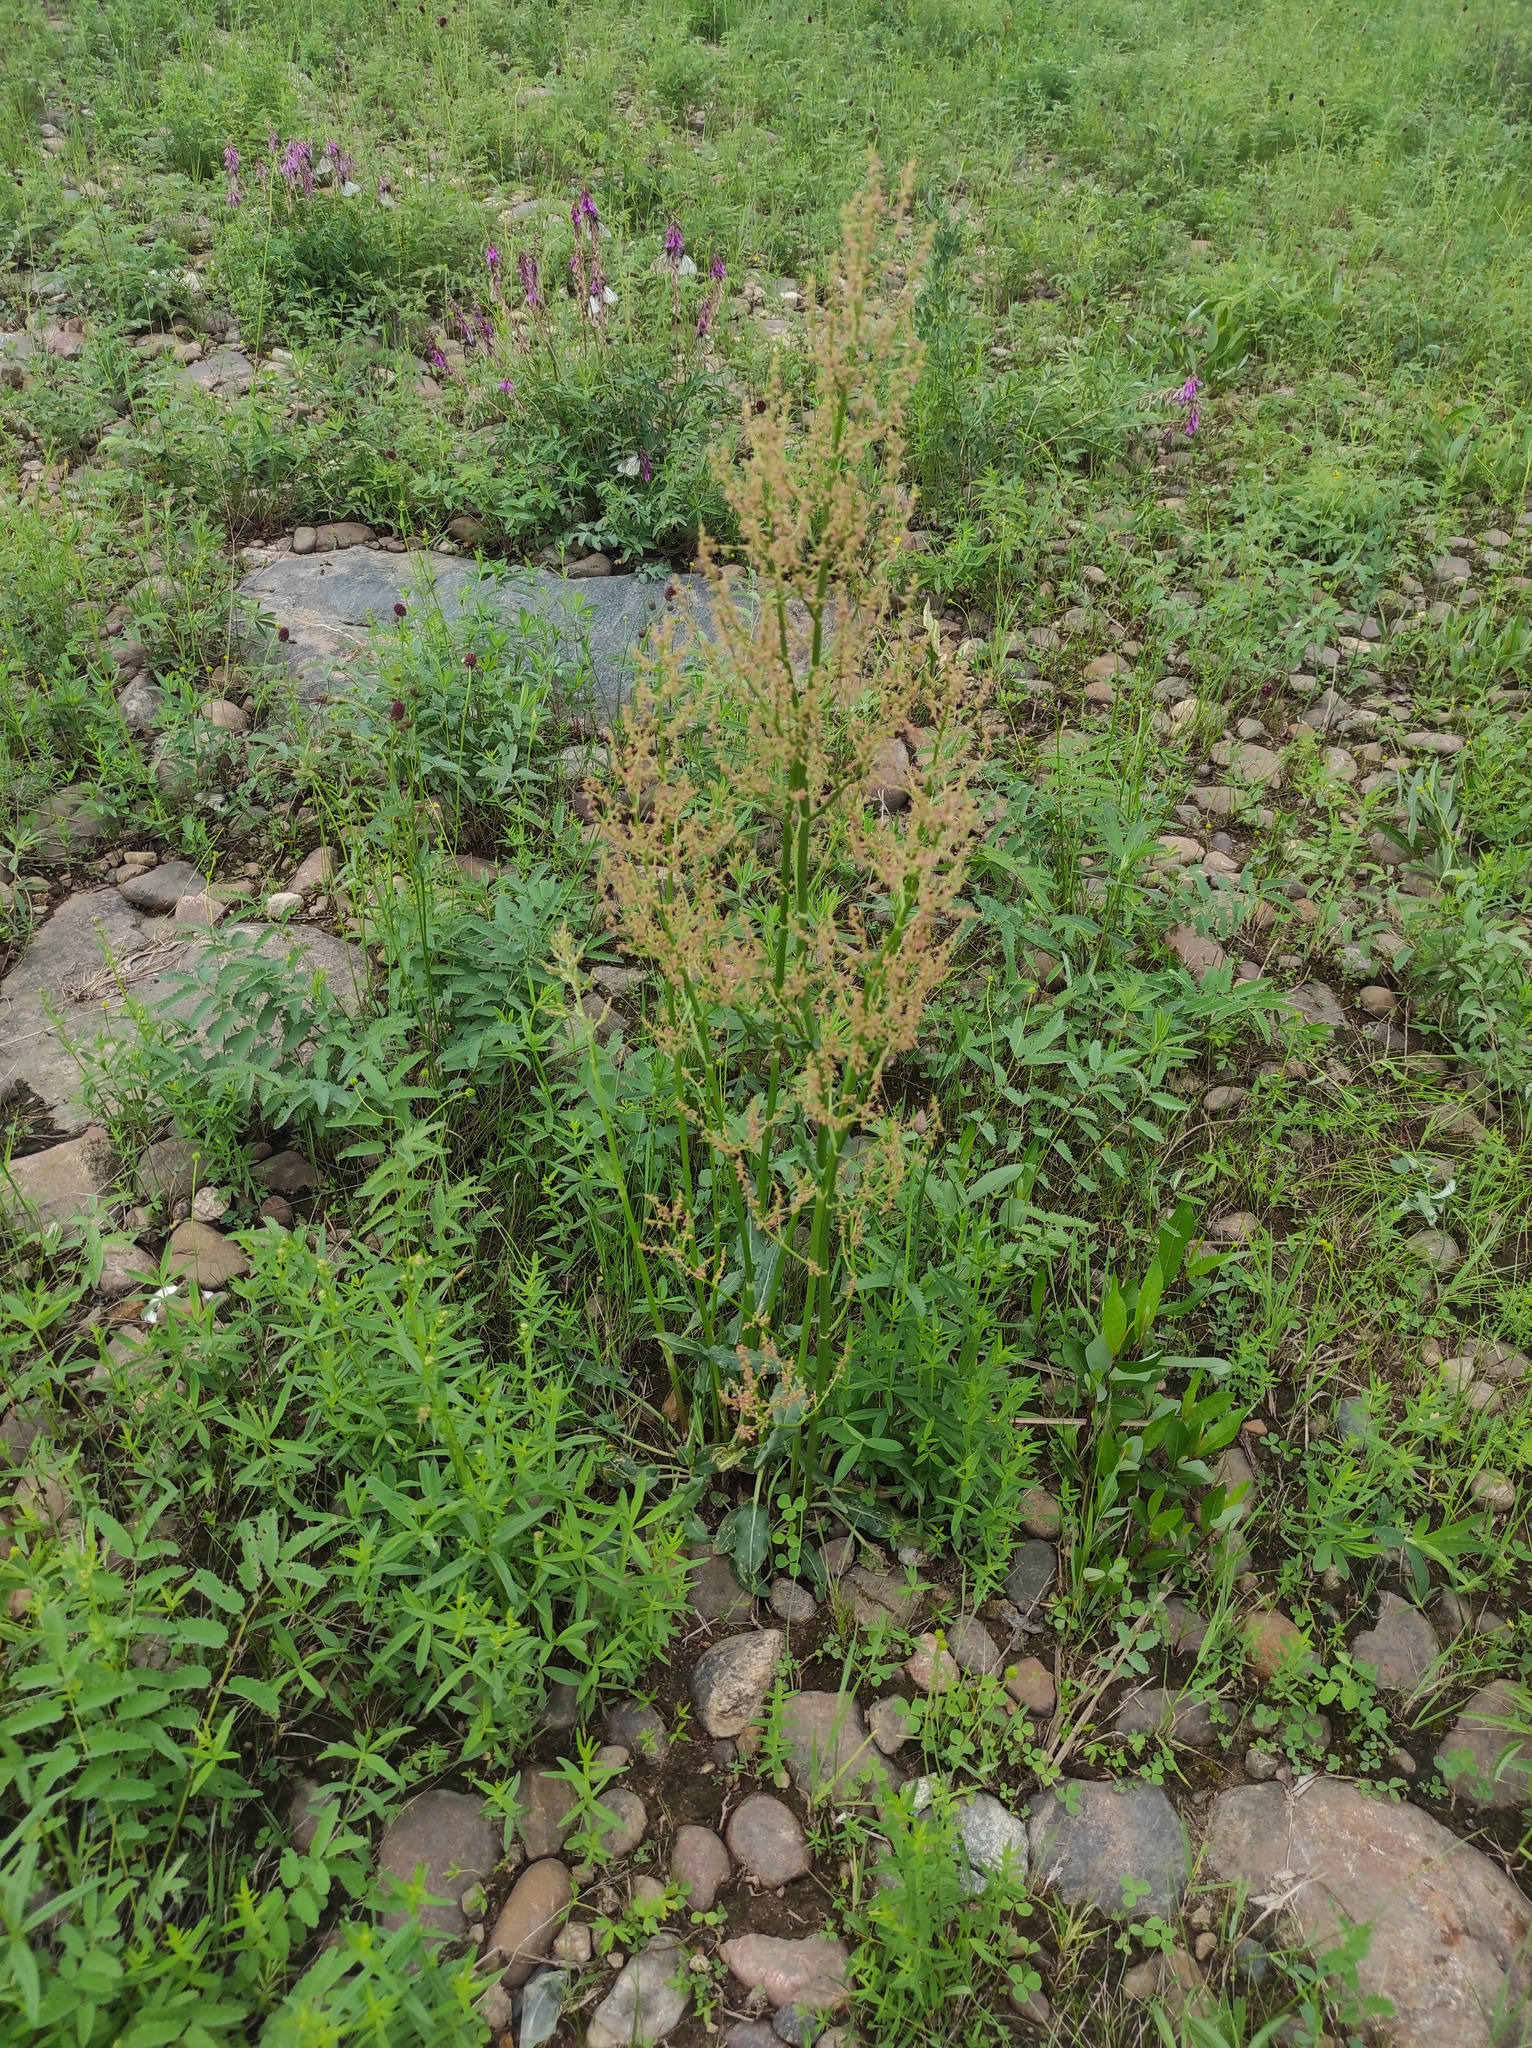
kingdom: Animalia
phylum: Arthropoda
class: Insecta
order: Lepidoptera
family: Pieridae
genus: Aporia
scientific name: Aporia crataegi
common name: Black-veined white
